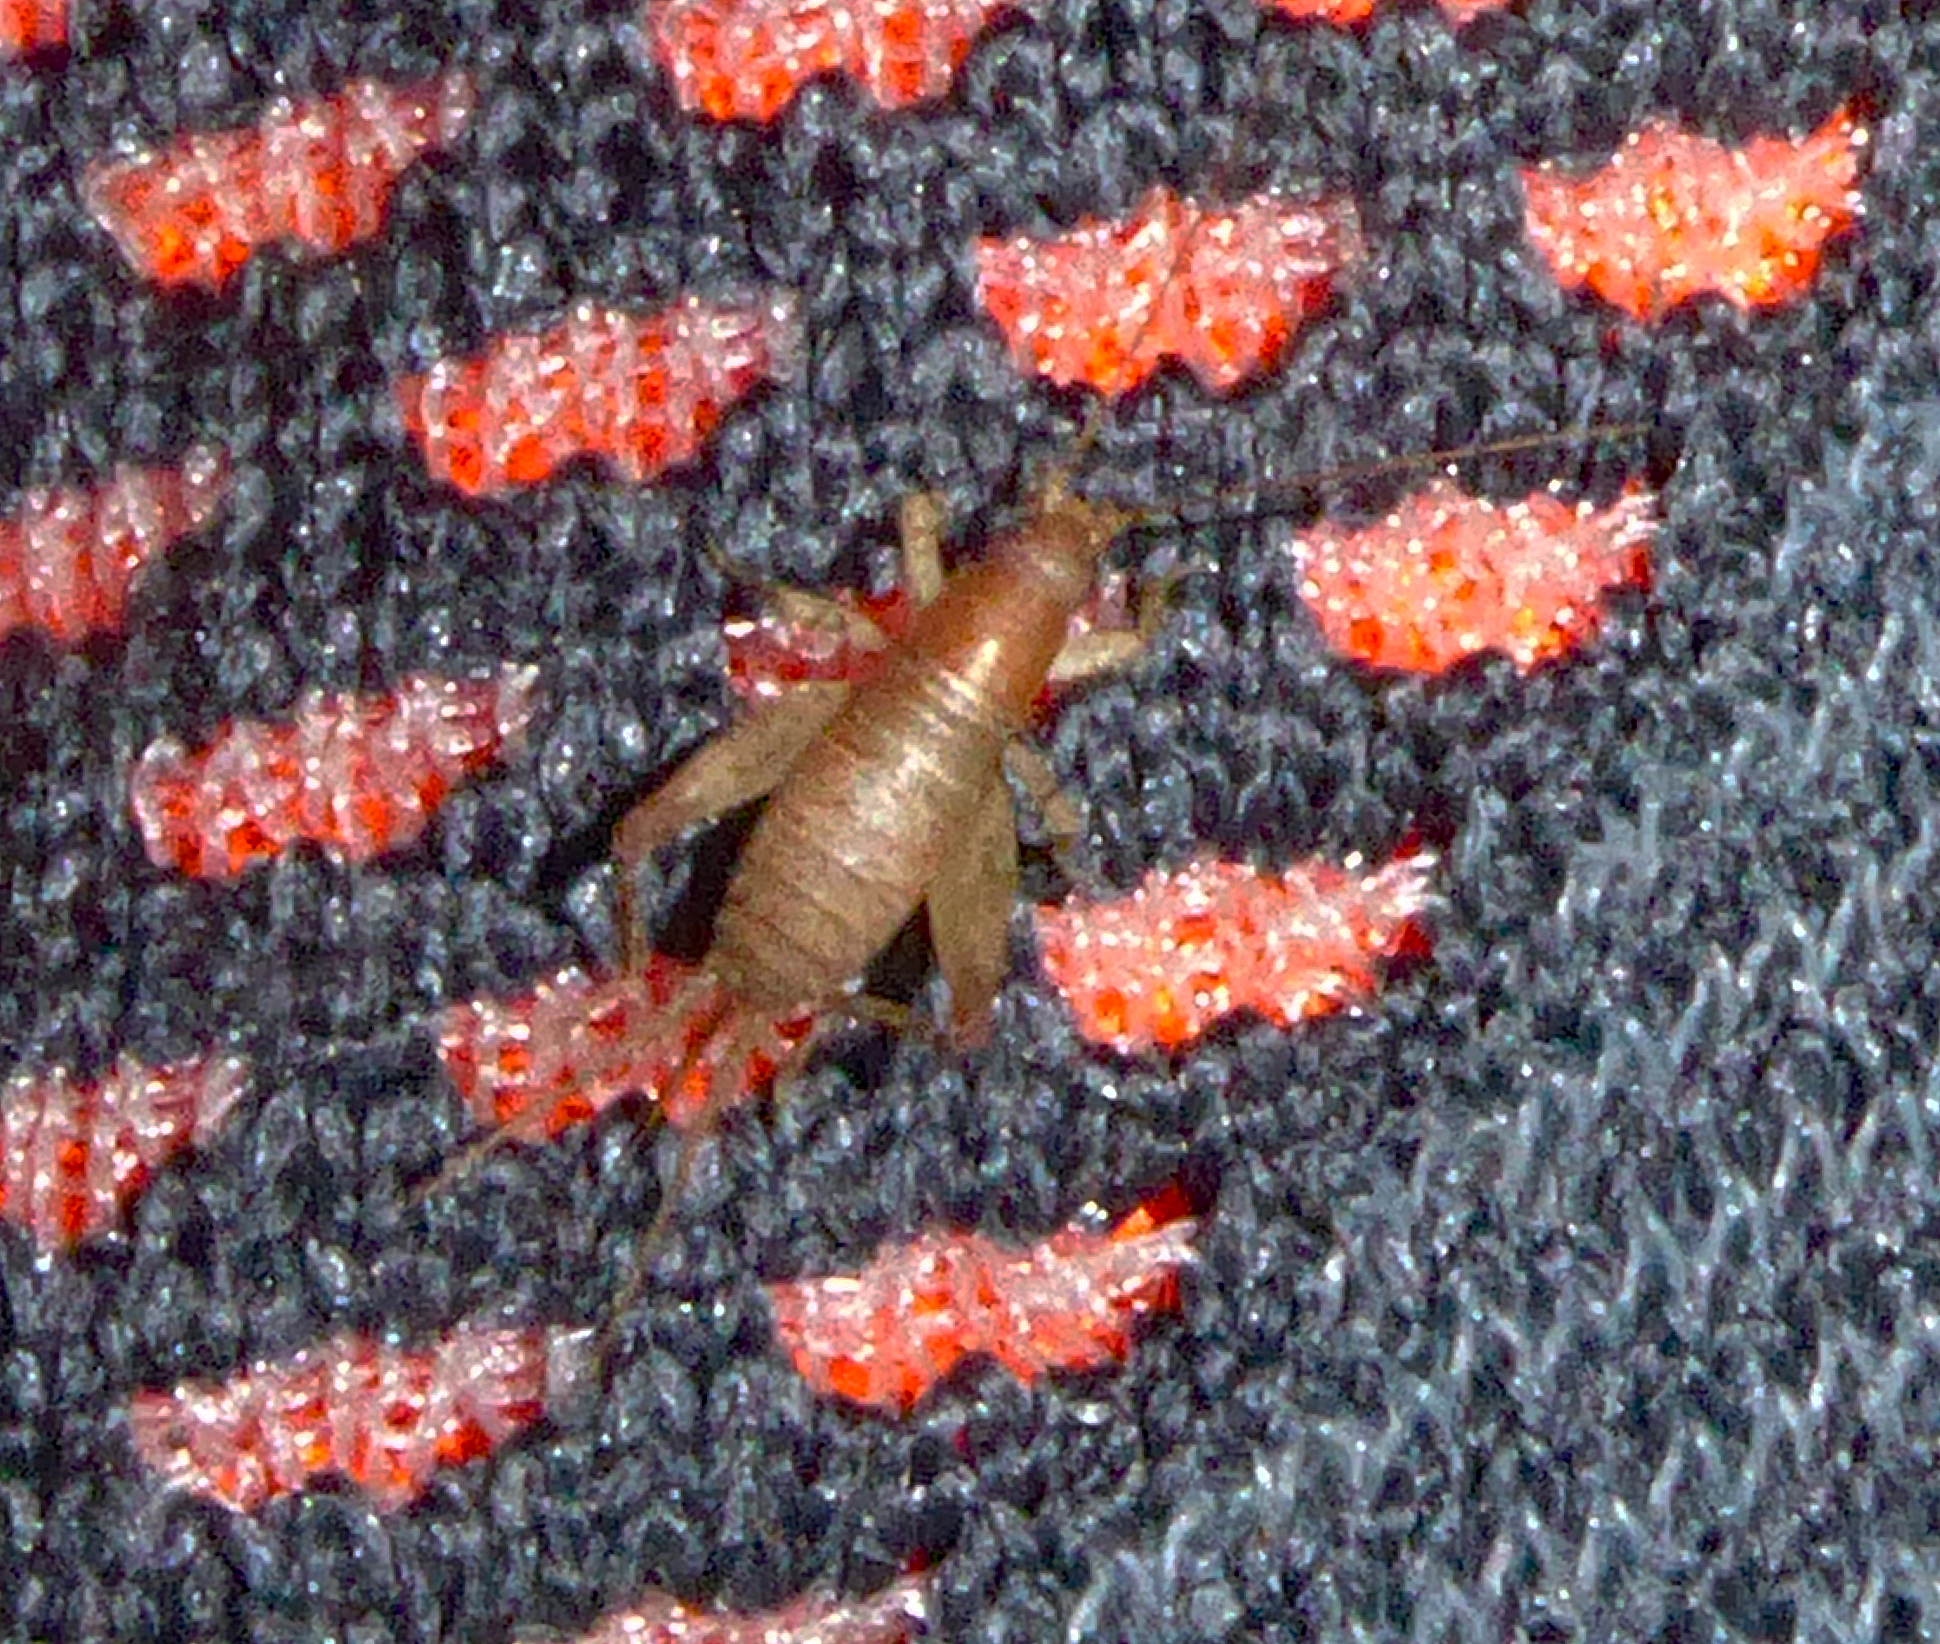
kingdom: Animalia
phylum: Arthropoda
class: Insecta
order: Orthoptera
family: Mogoplistidae
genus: Ornebius
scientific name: Ornebius aperta
